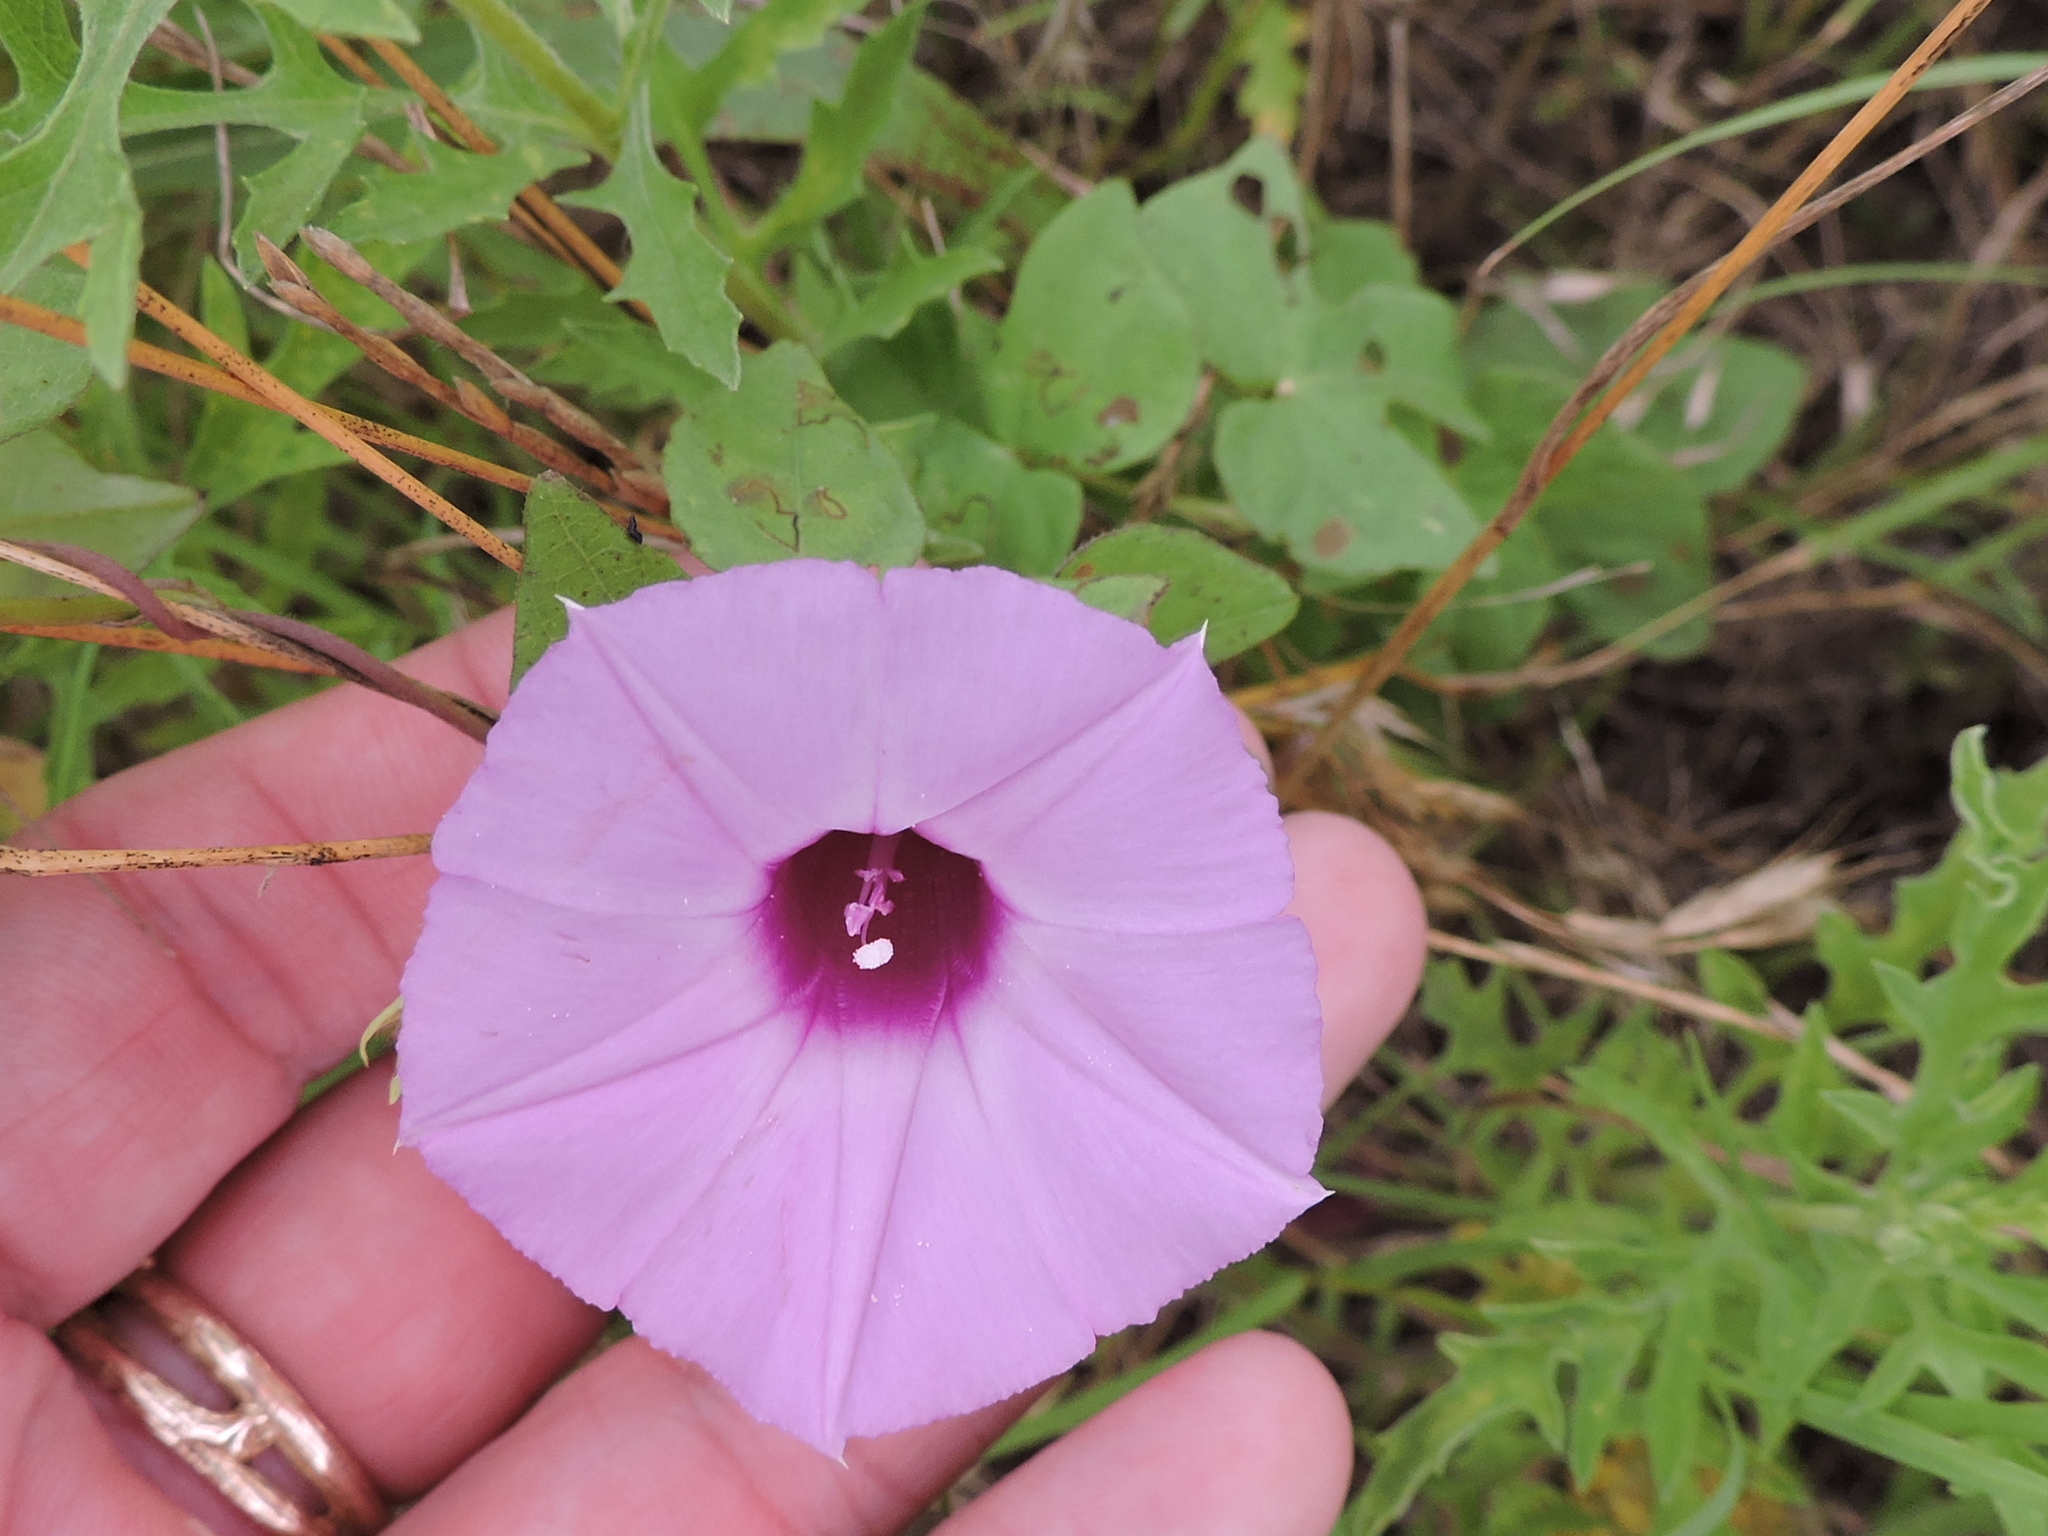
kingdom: Plantae
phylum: Tracheophyta
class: Magnoliopsida
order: Solanales
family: Convolvulaceae
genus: Ipomoea
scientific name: Ipomoea cordatotriloba
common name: Cotton morning glory
